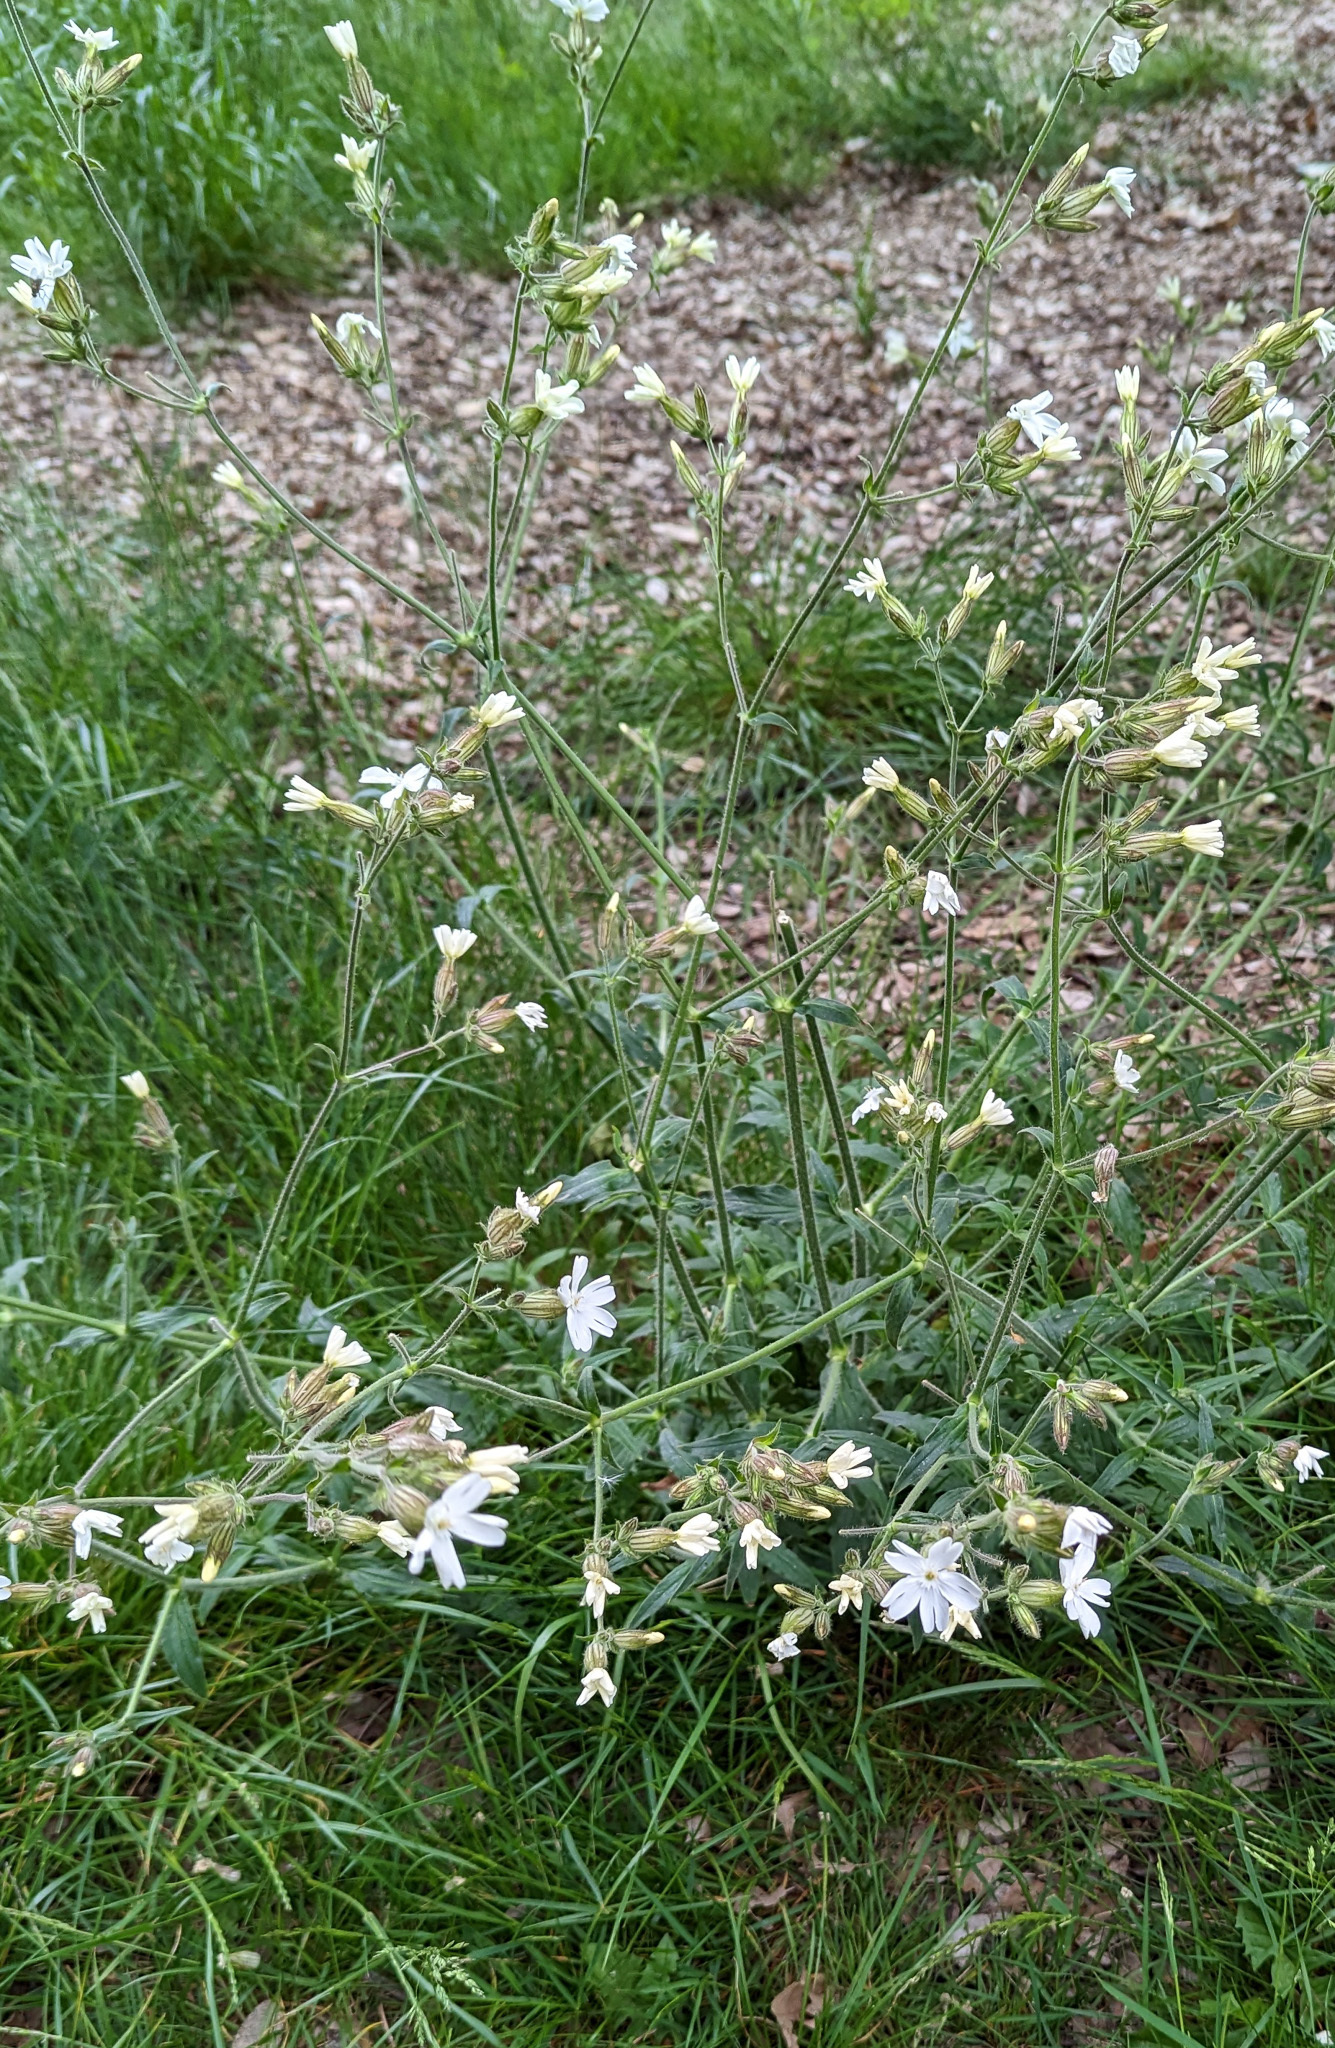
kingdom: Plantae
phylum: Tracheophyta
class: Magnoliopsida
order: Caryophyllales
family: Caryophyllaceae
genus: Silene
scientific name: Silene latifolia
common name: White campion
